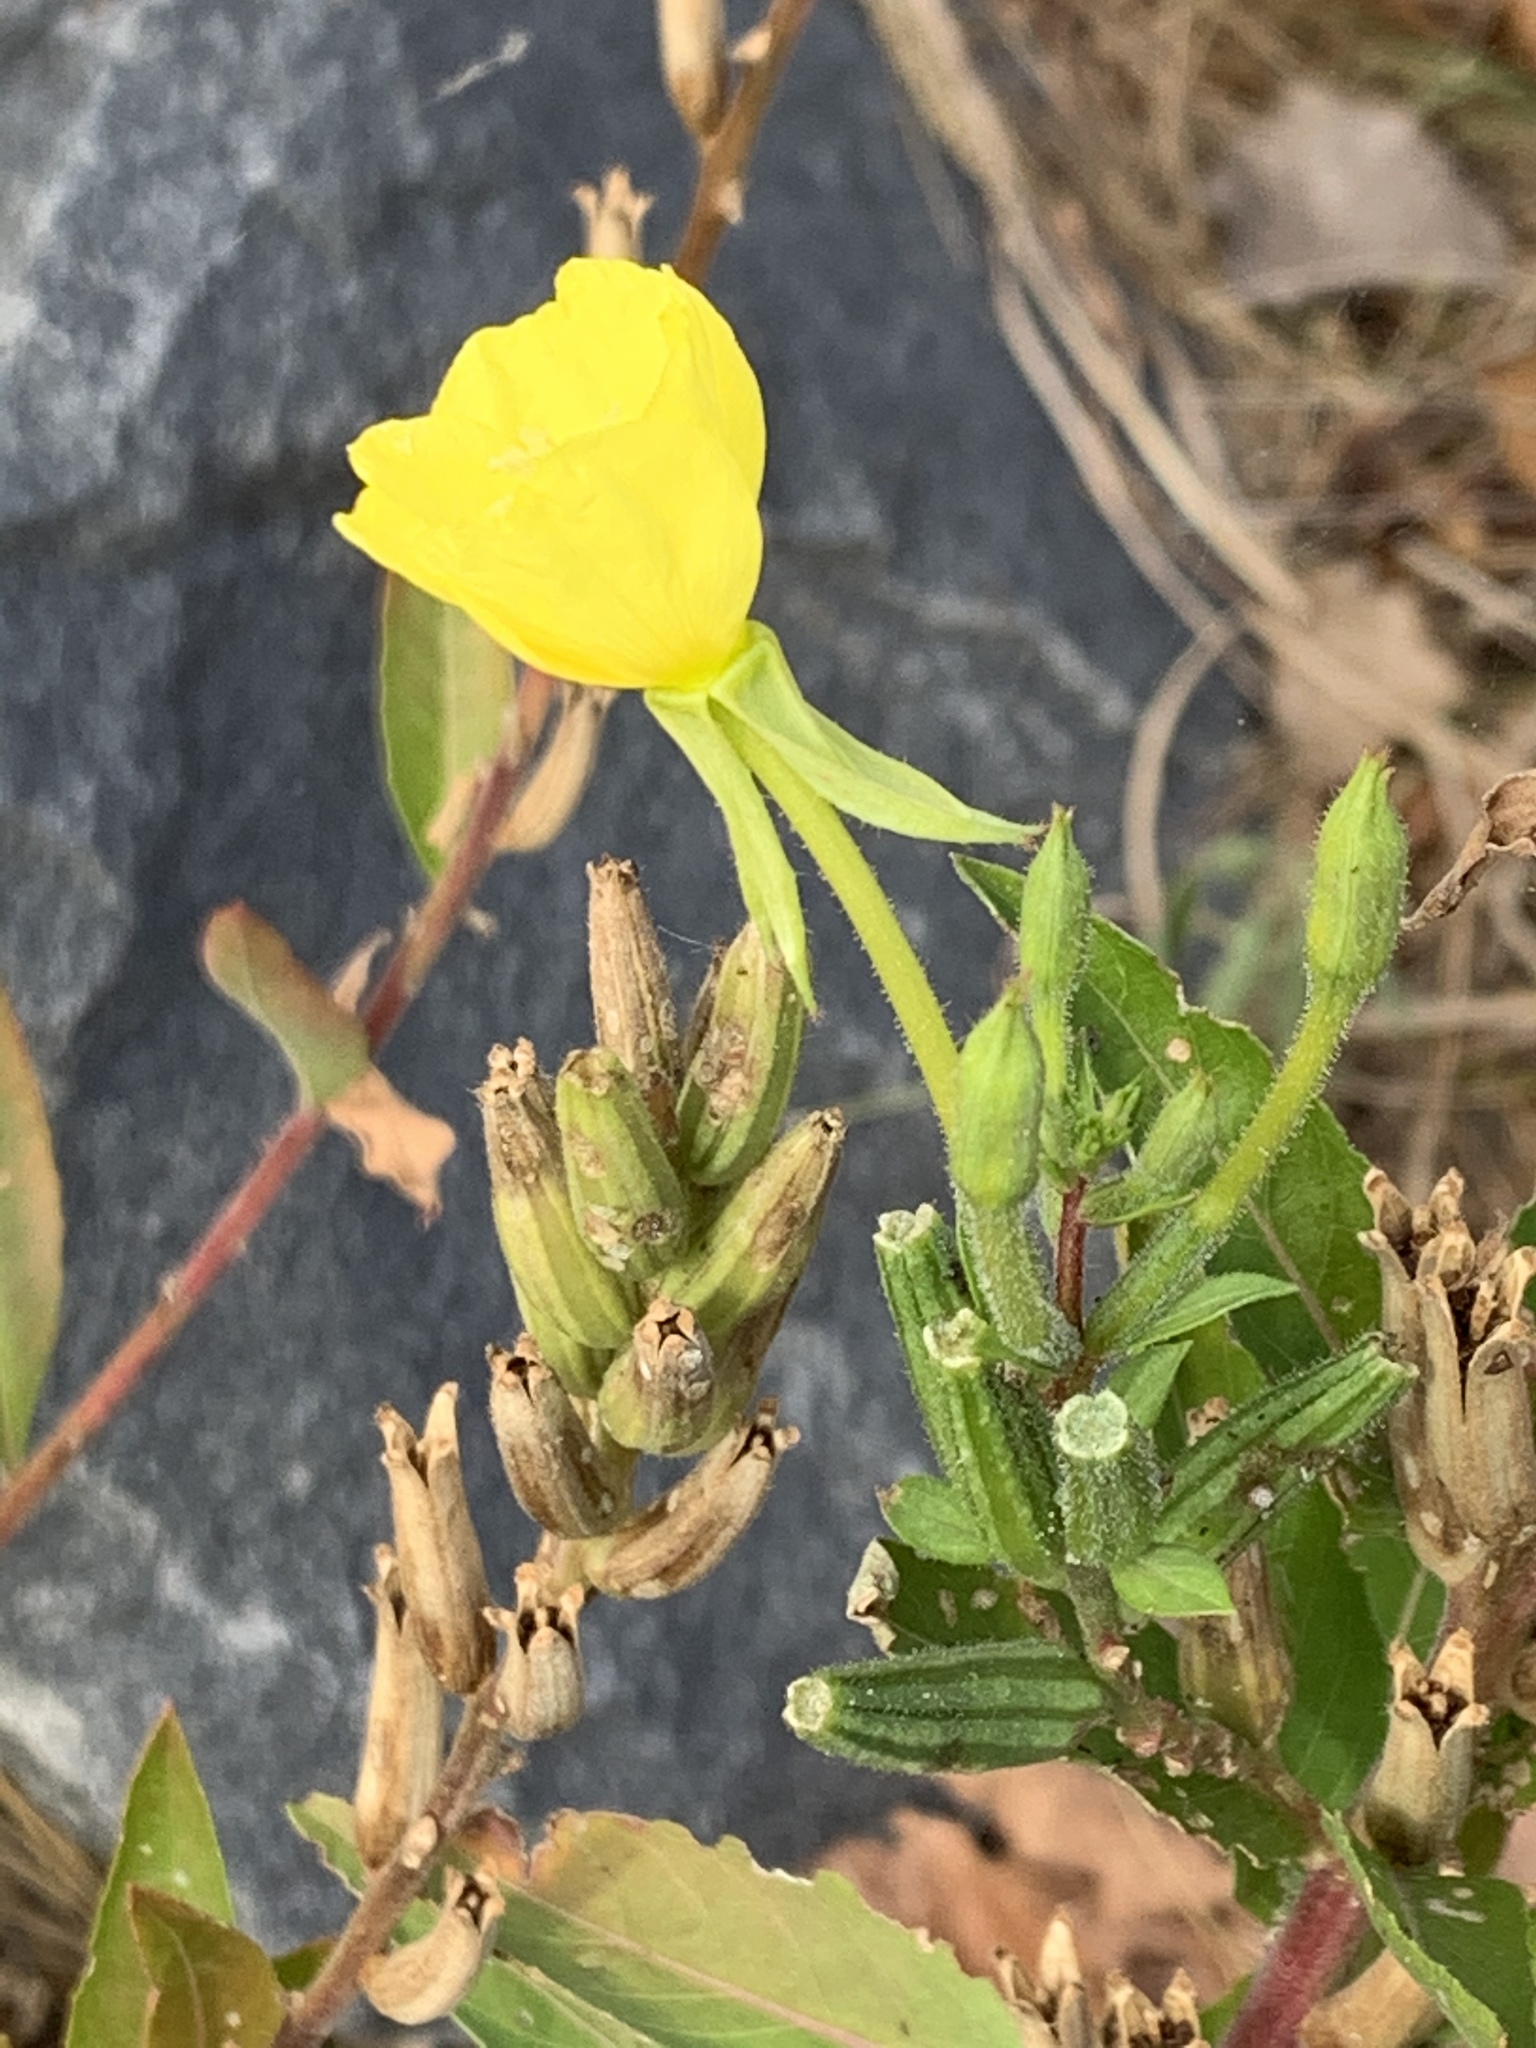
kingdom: Plantae
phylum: Tracheophyta
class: Magnoliopsida
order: Myrtales
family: Onagraceae
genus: Oenothera
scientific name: Oenothera biennis
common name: Common evening-primrose
